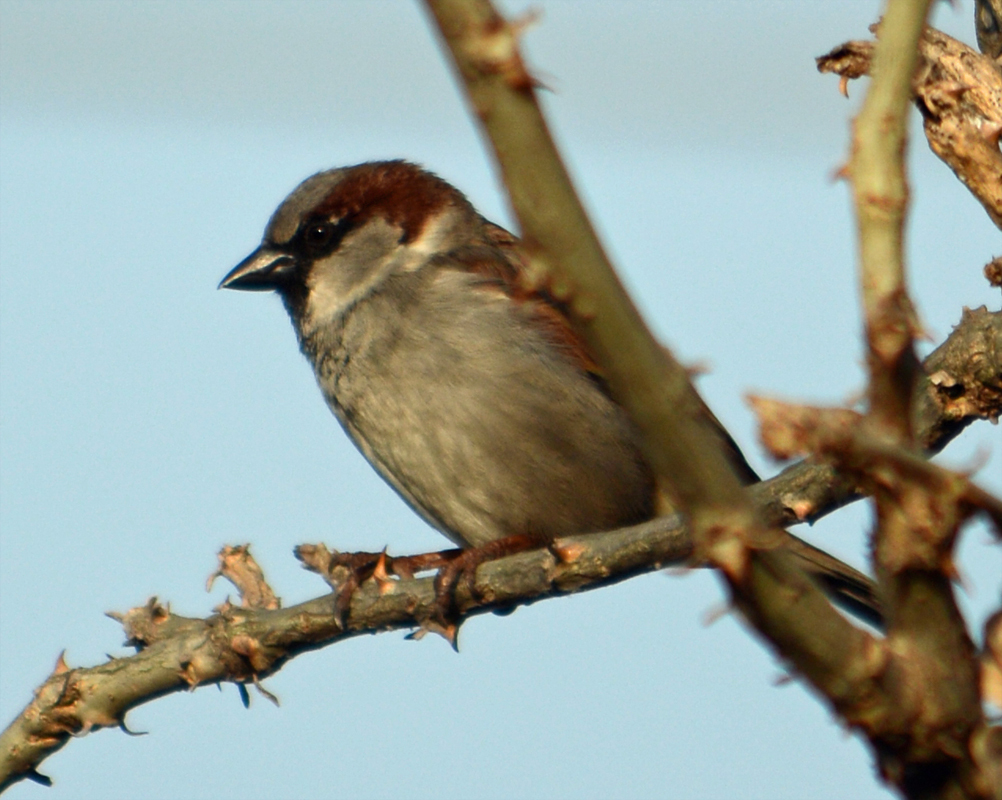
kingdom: Animalia
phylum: Chordata
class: Aves
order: Passeriformes
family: Passeridae
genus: Passer
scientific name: Passer domesticus
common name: House sparrow
